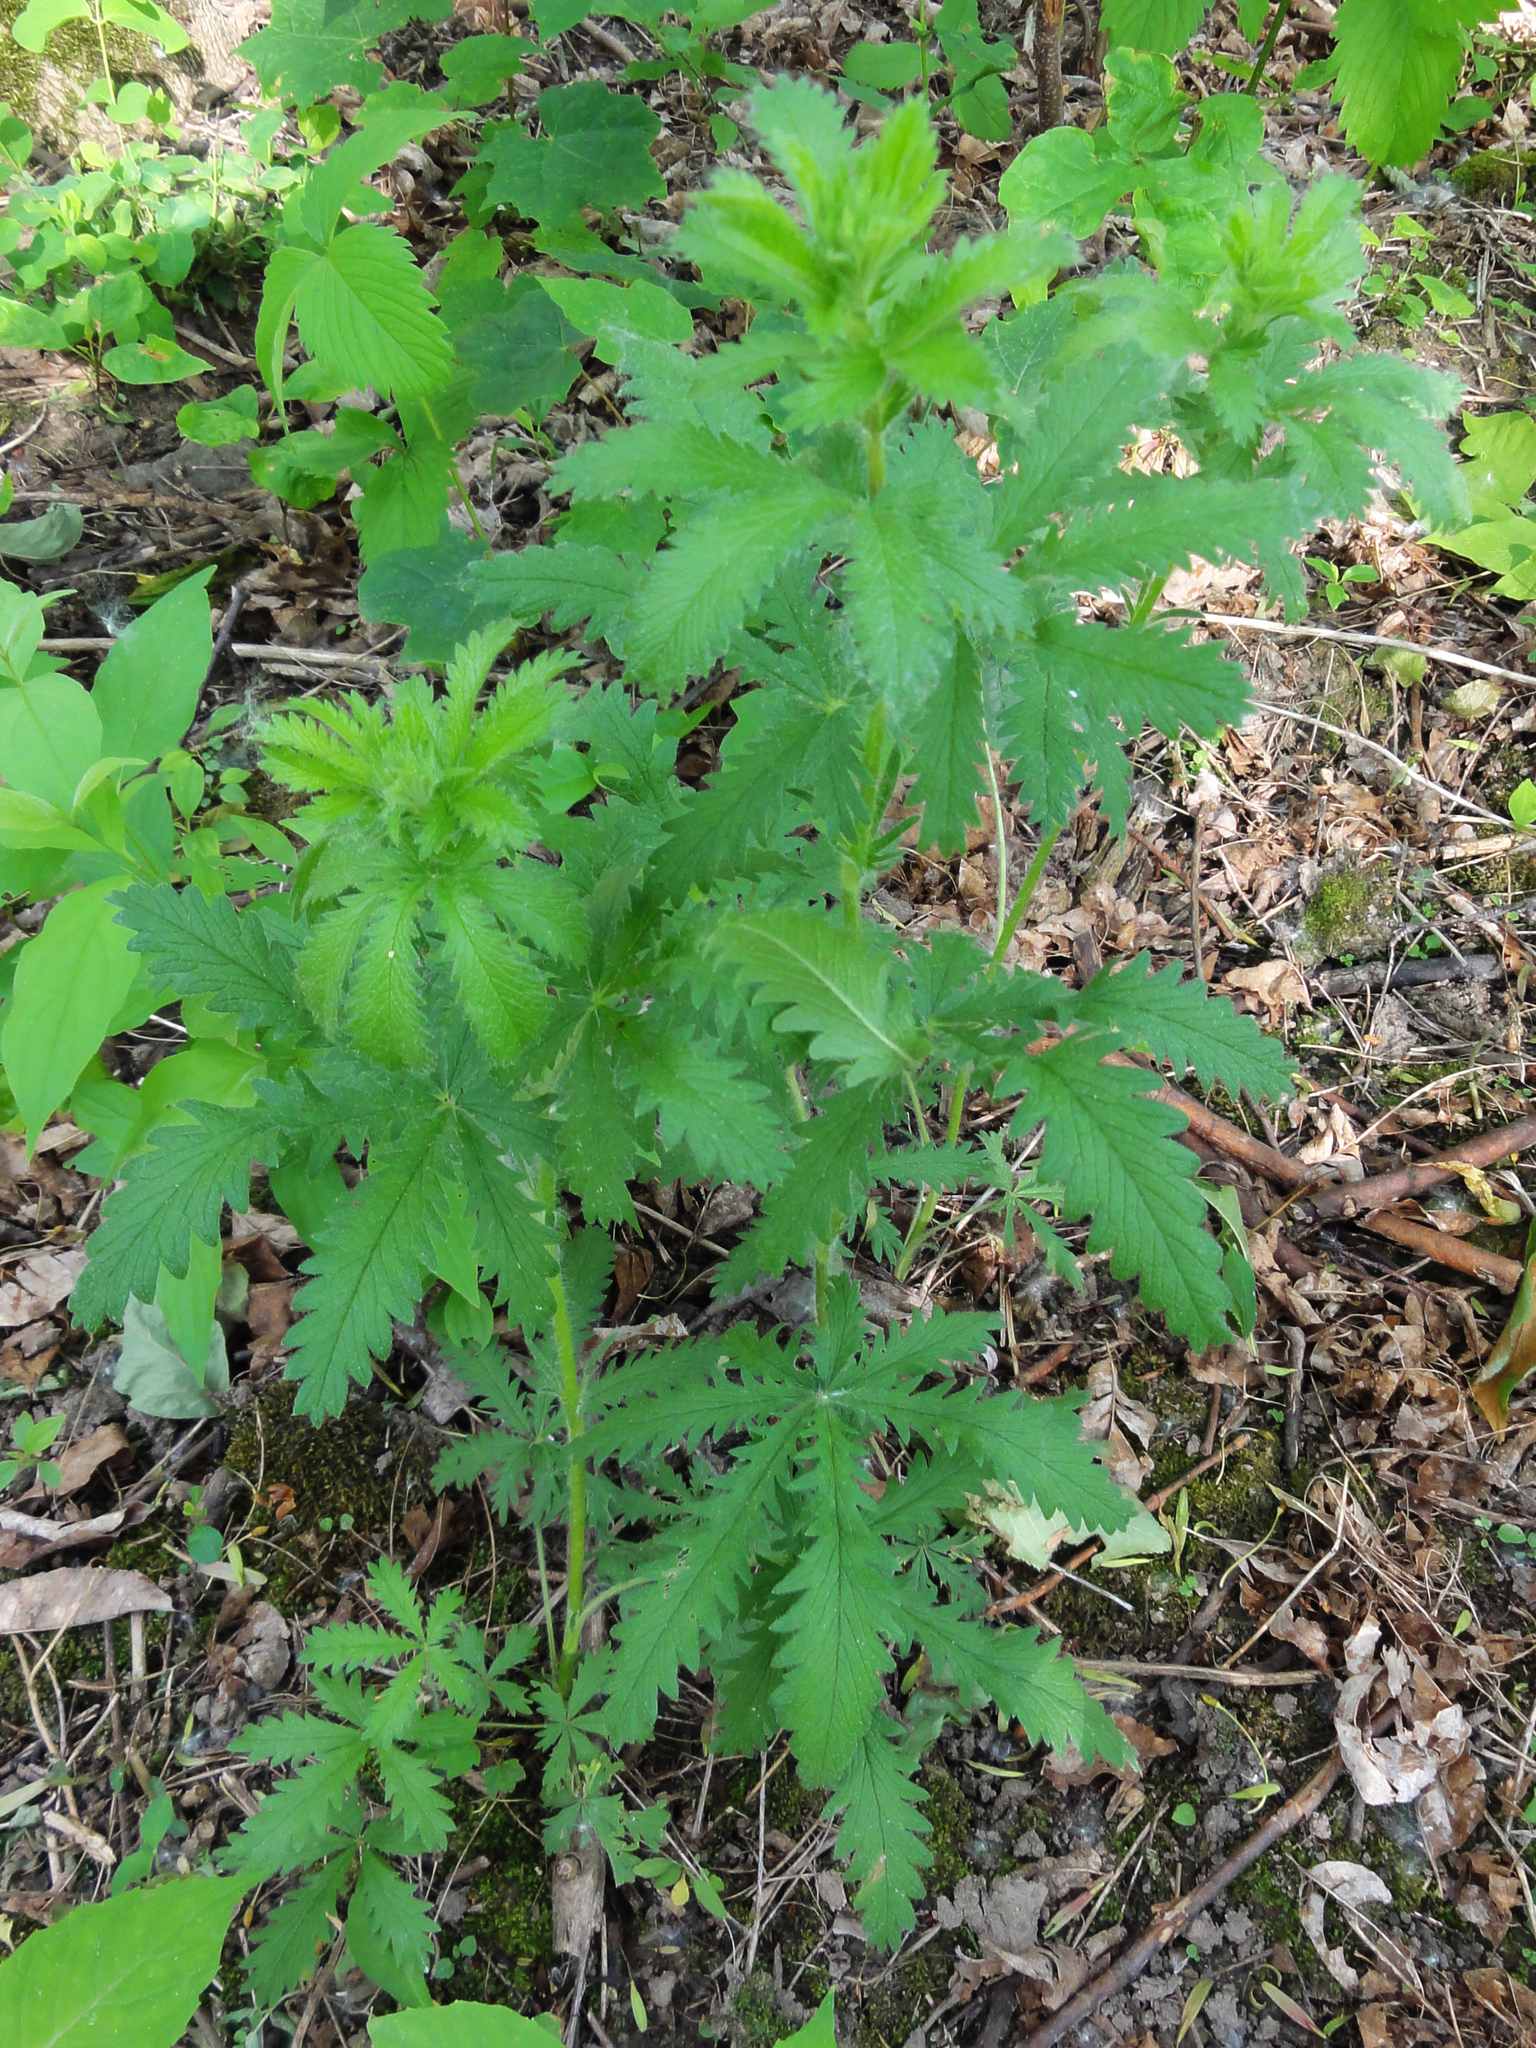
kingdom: Plantae
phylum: Tracheophyta
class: Magnoliopsida
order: Rosales
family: Rosaceae
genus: Potentilla
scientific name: Potentilla recta
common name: Sulphur cinquefoil
